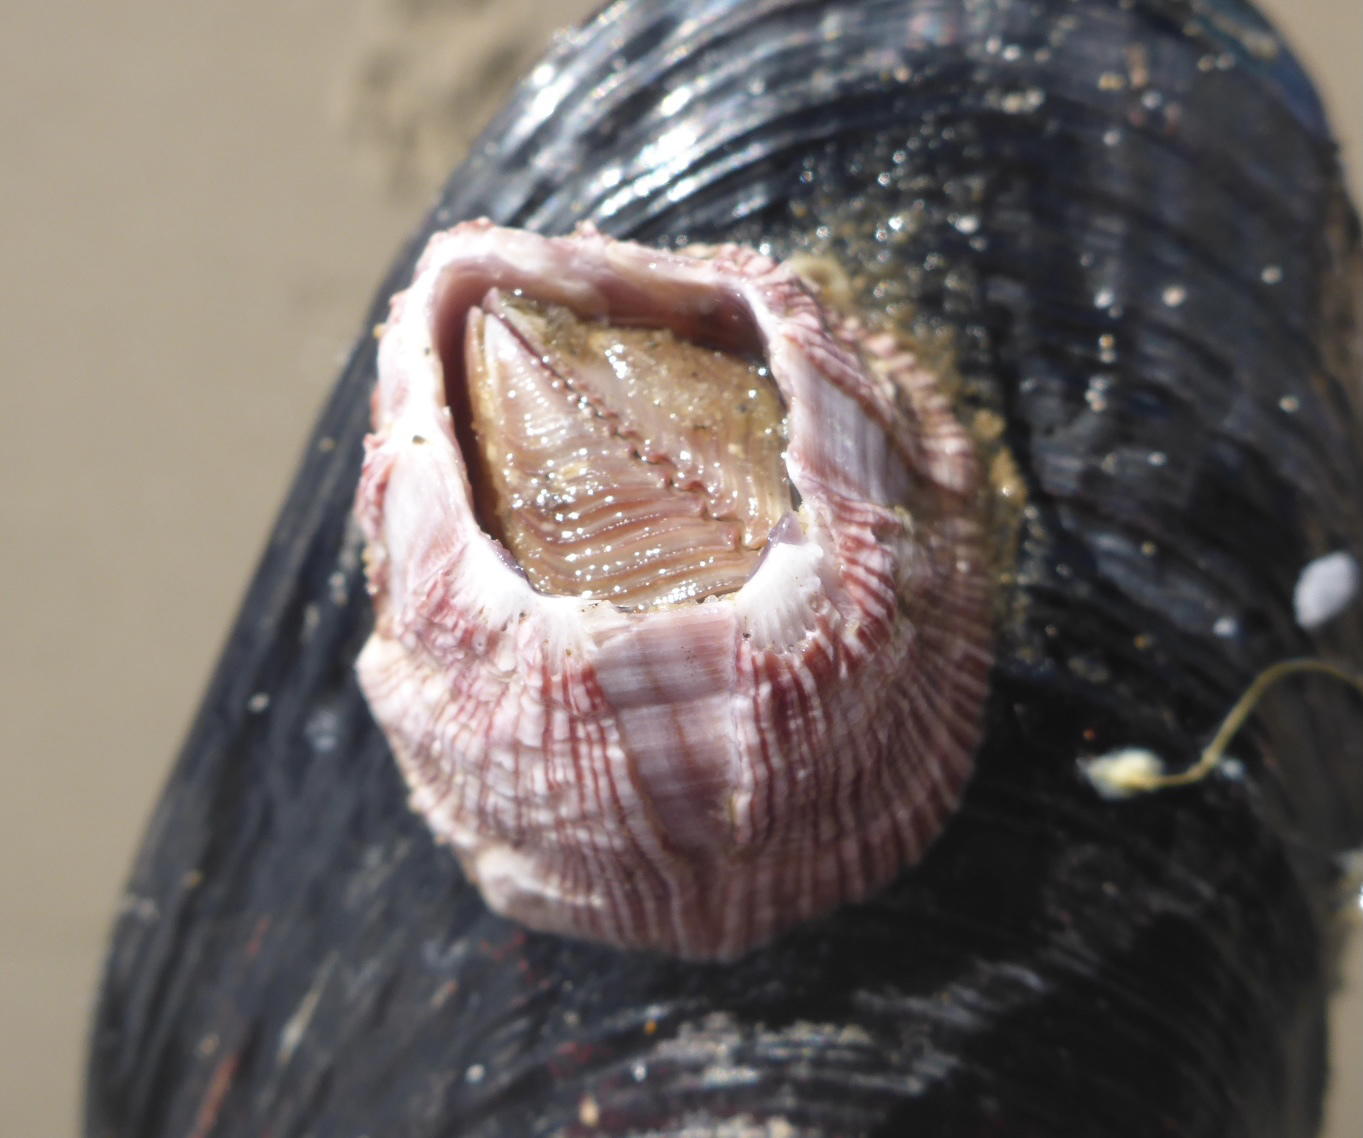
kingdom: Animalia
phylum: Arthropoda
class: Maxillopoda
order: Sessilia
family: Balanidae
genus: Megabalanus
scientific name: Megabalanus californicus
